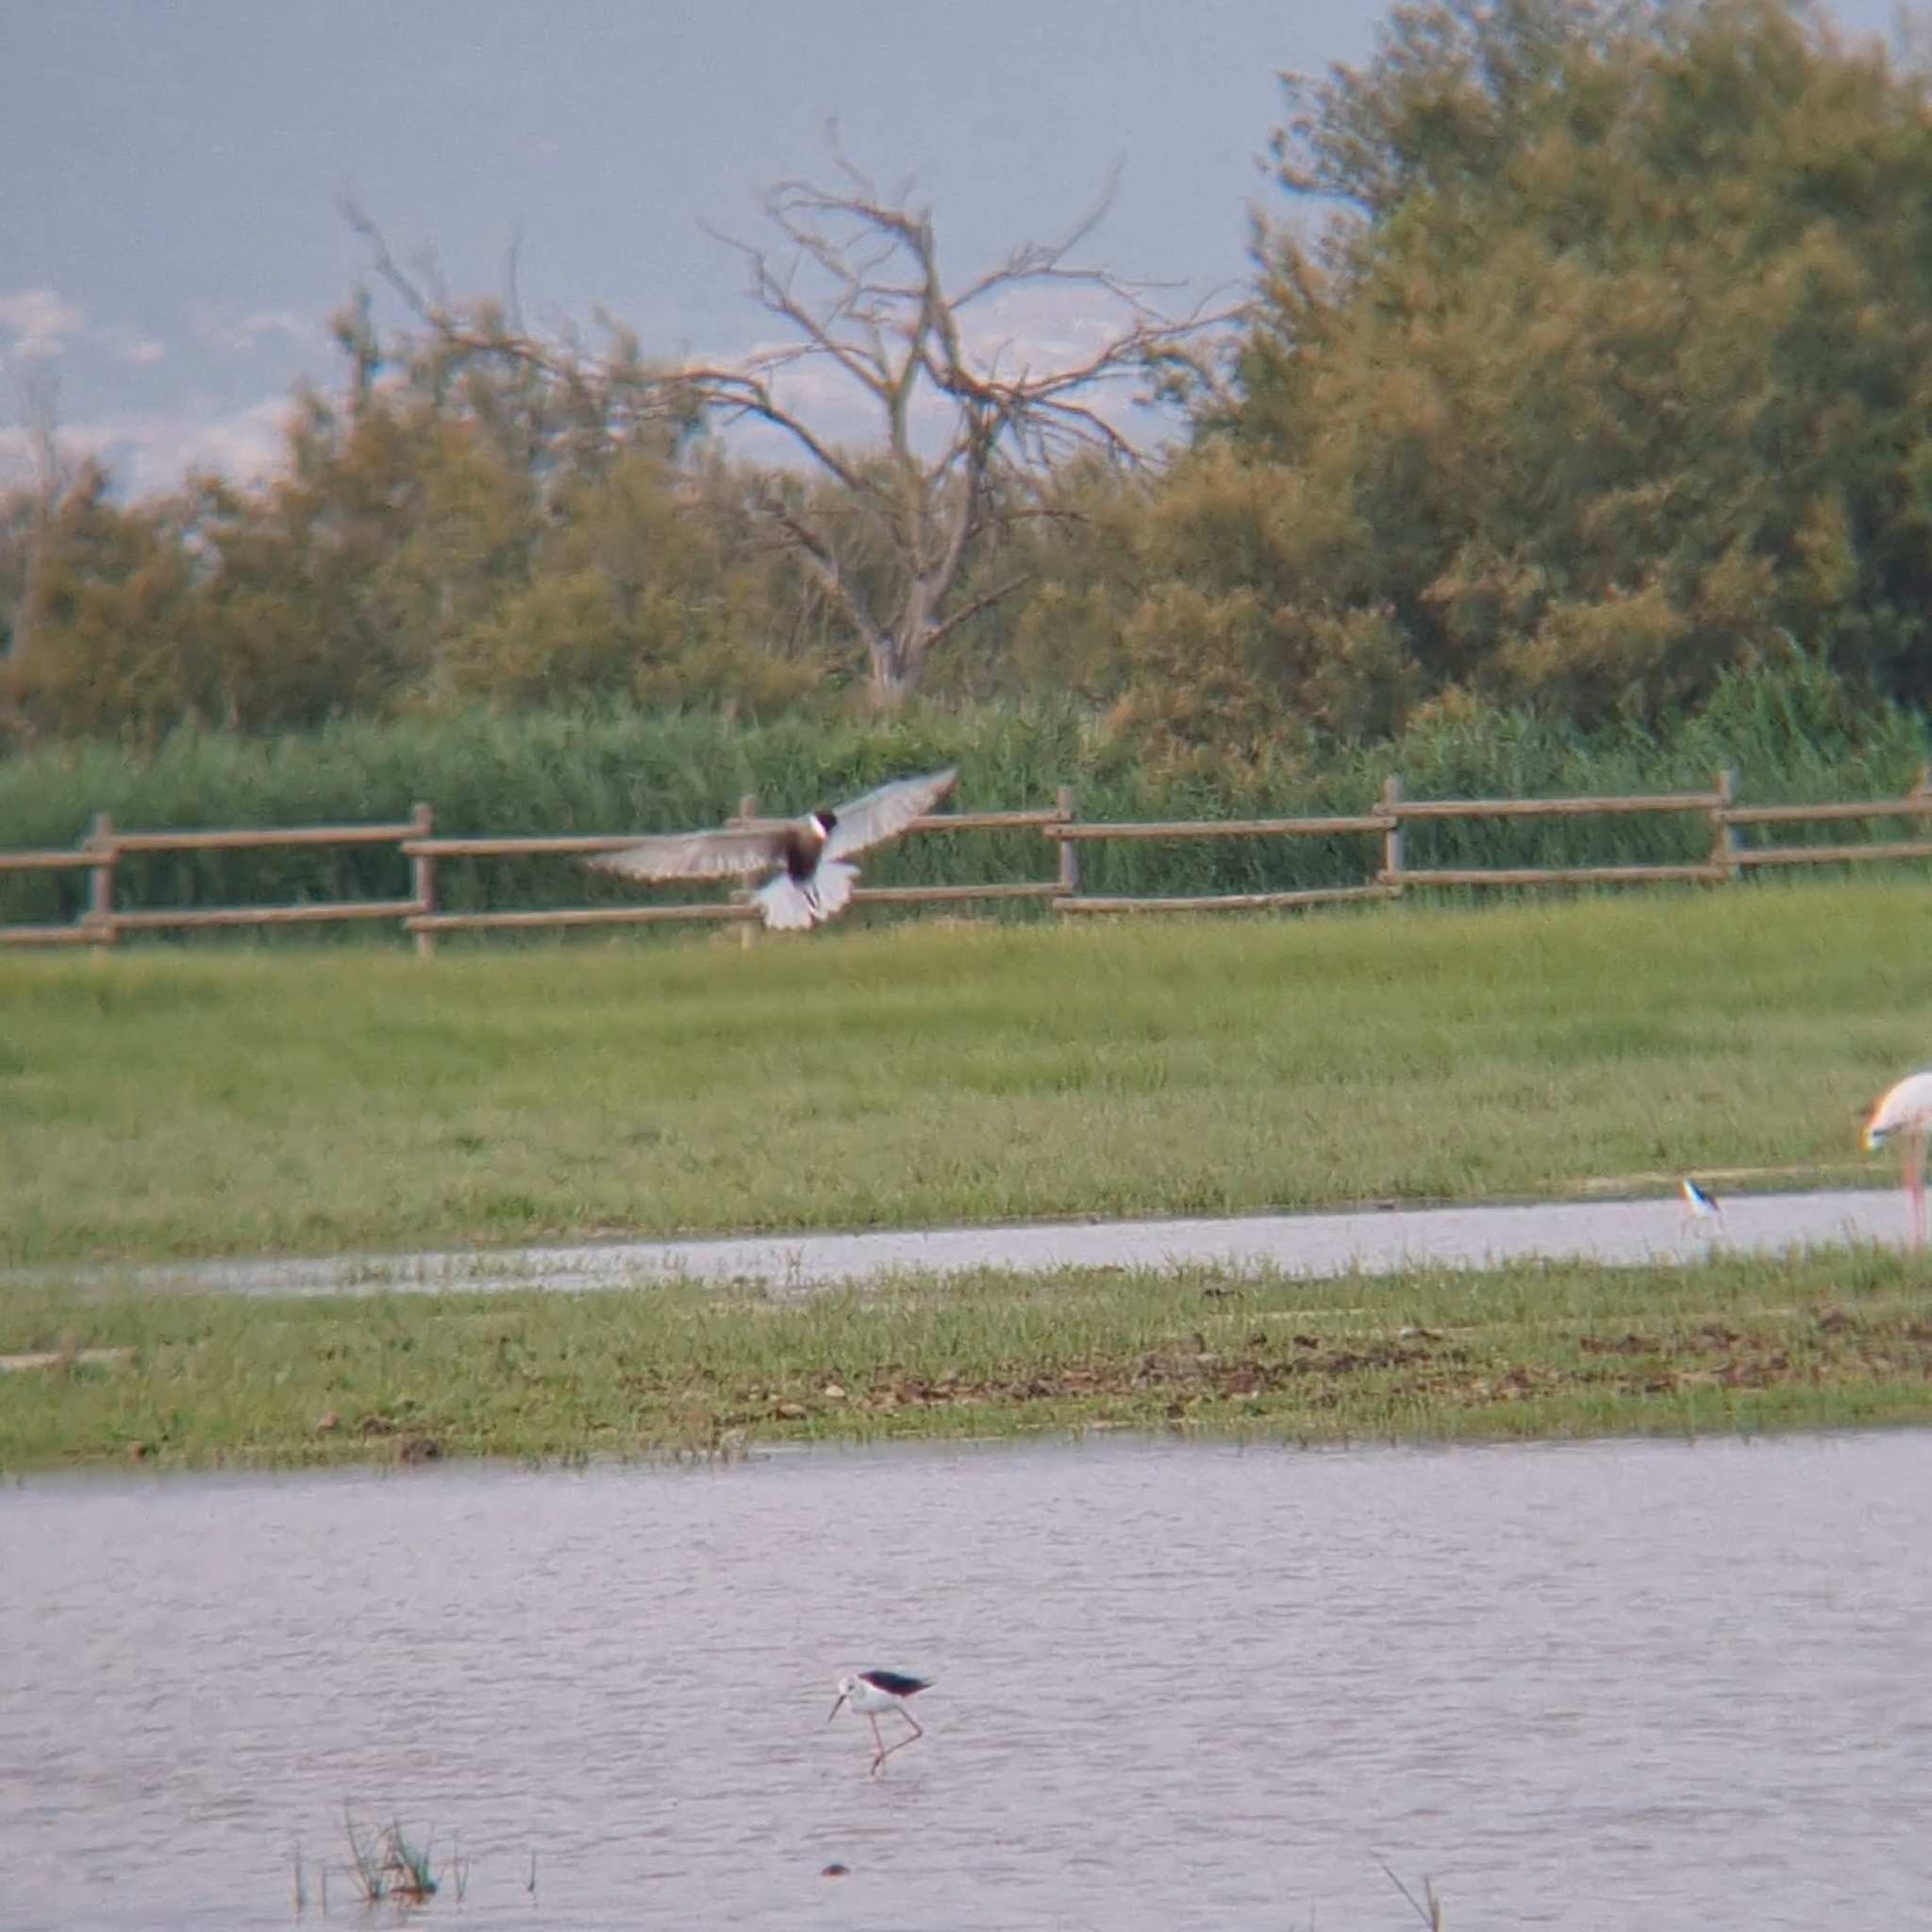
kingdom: Animalia
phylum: Chordata
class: Aves
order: Charadriiformes
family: Laridae
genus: Chlidonias
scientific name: Chlidonias hybrida
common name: Whiskered tern
